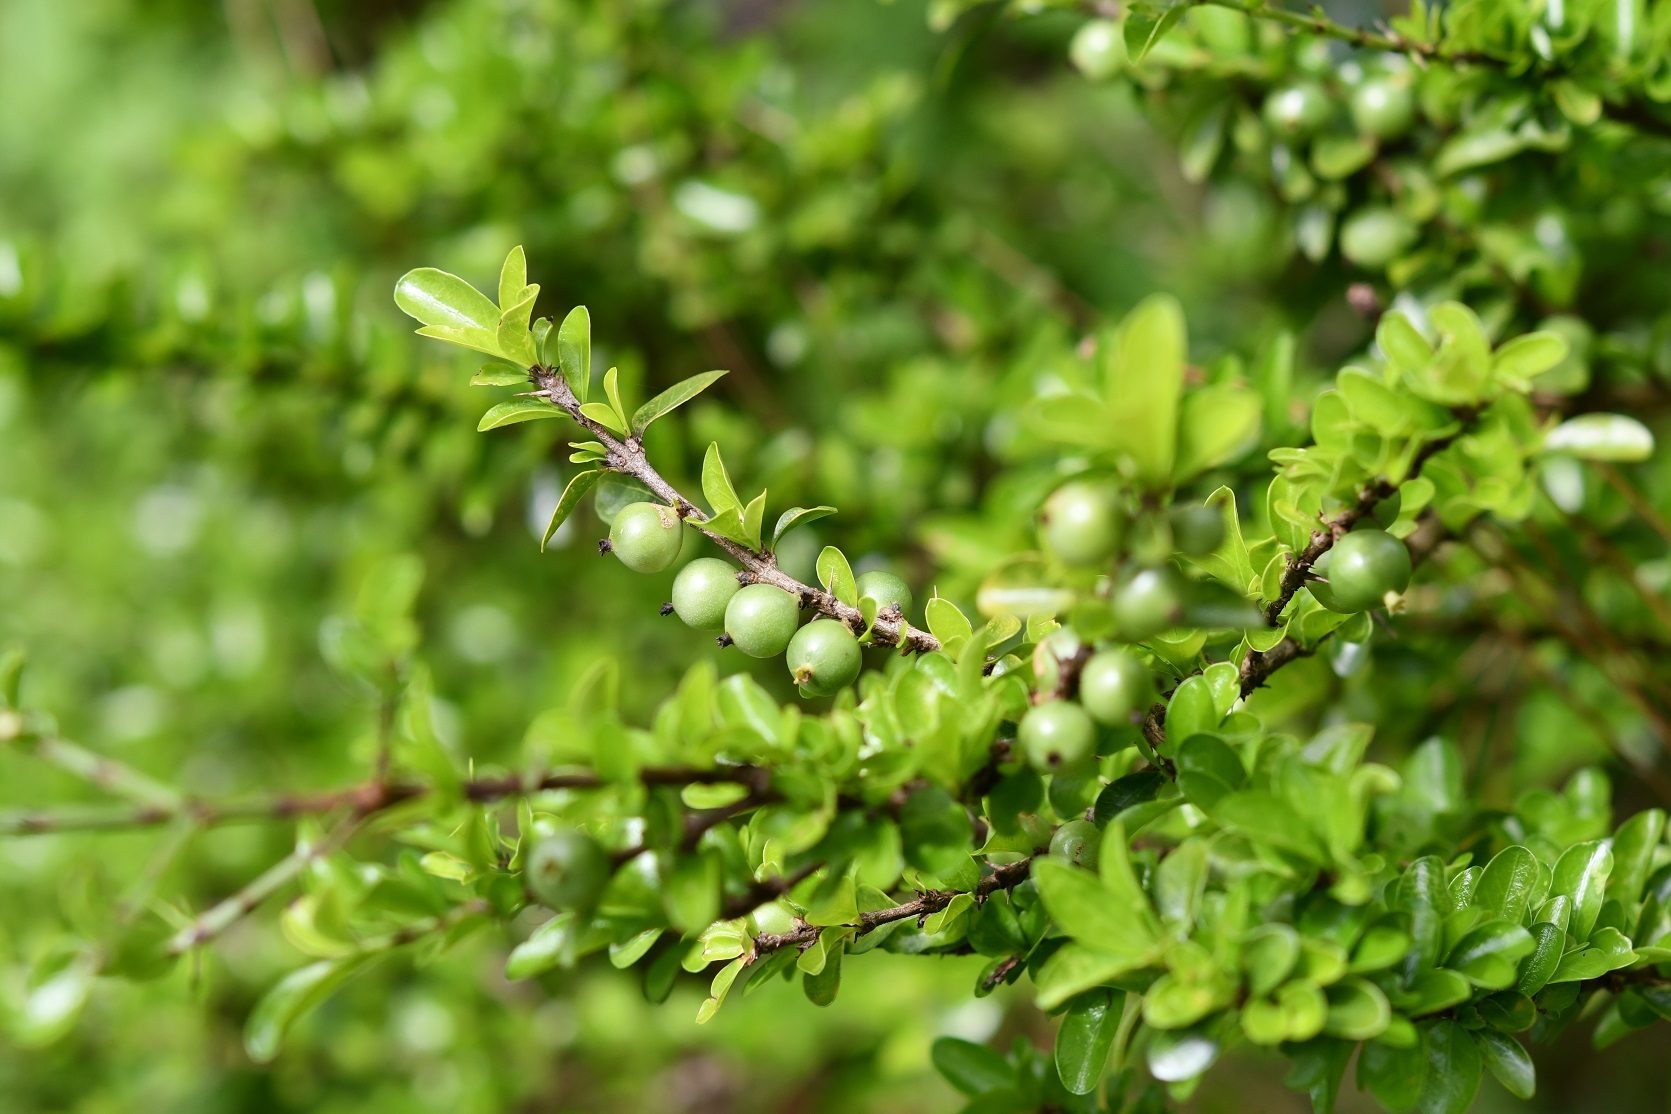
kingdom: Plantae
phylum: Tracheophyta
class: Magnoliopsida
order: Gentianales
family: Rubiaceae
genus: Randia
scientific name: Randia chiapensis
